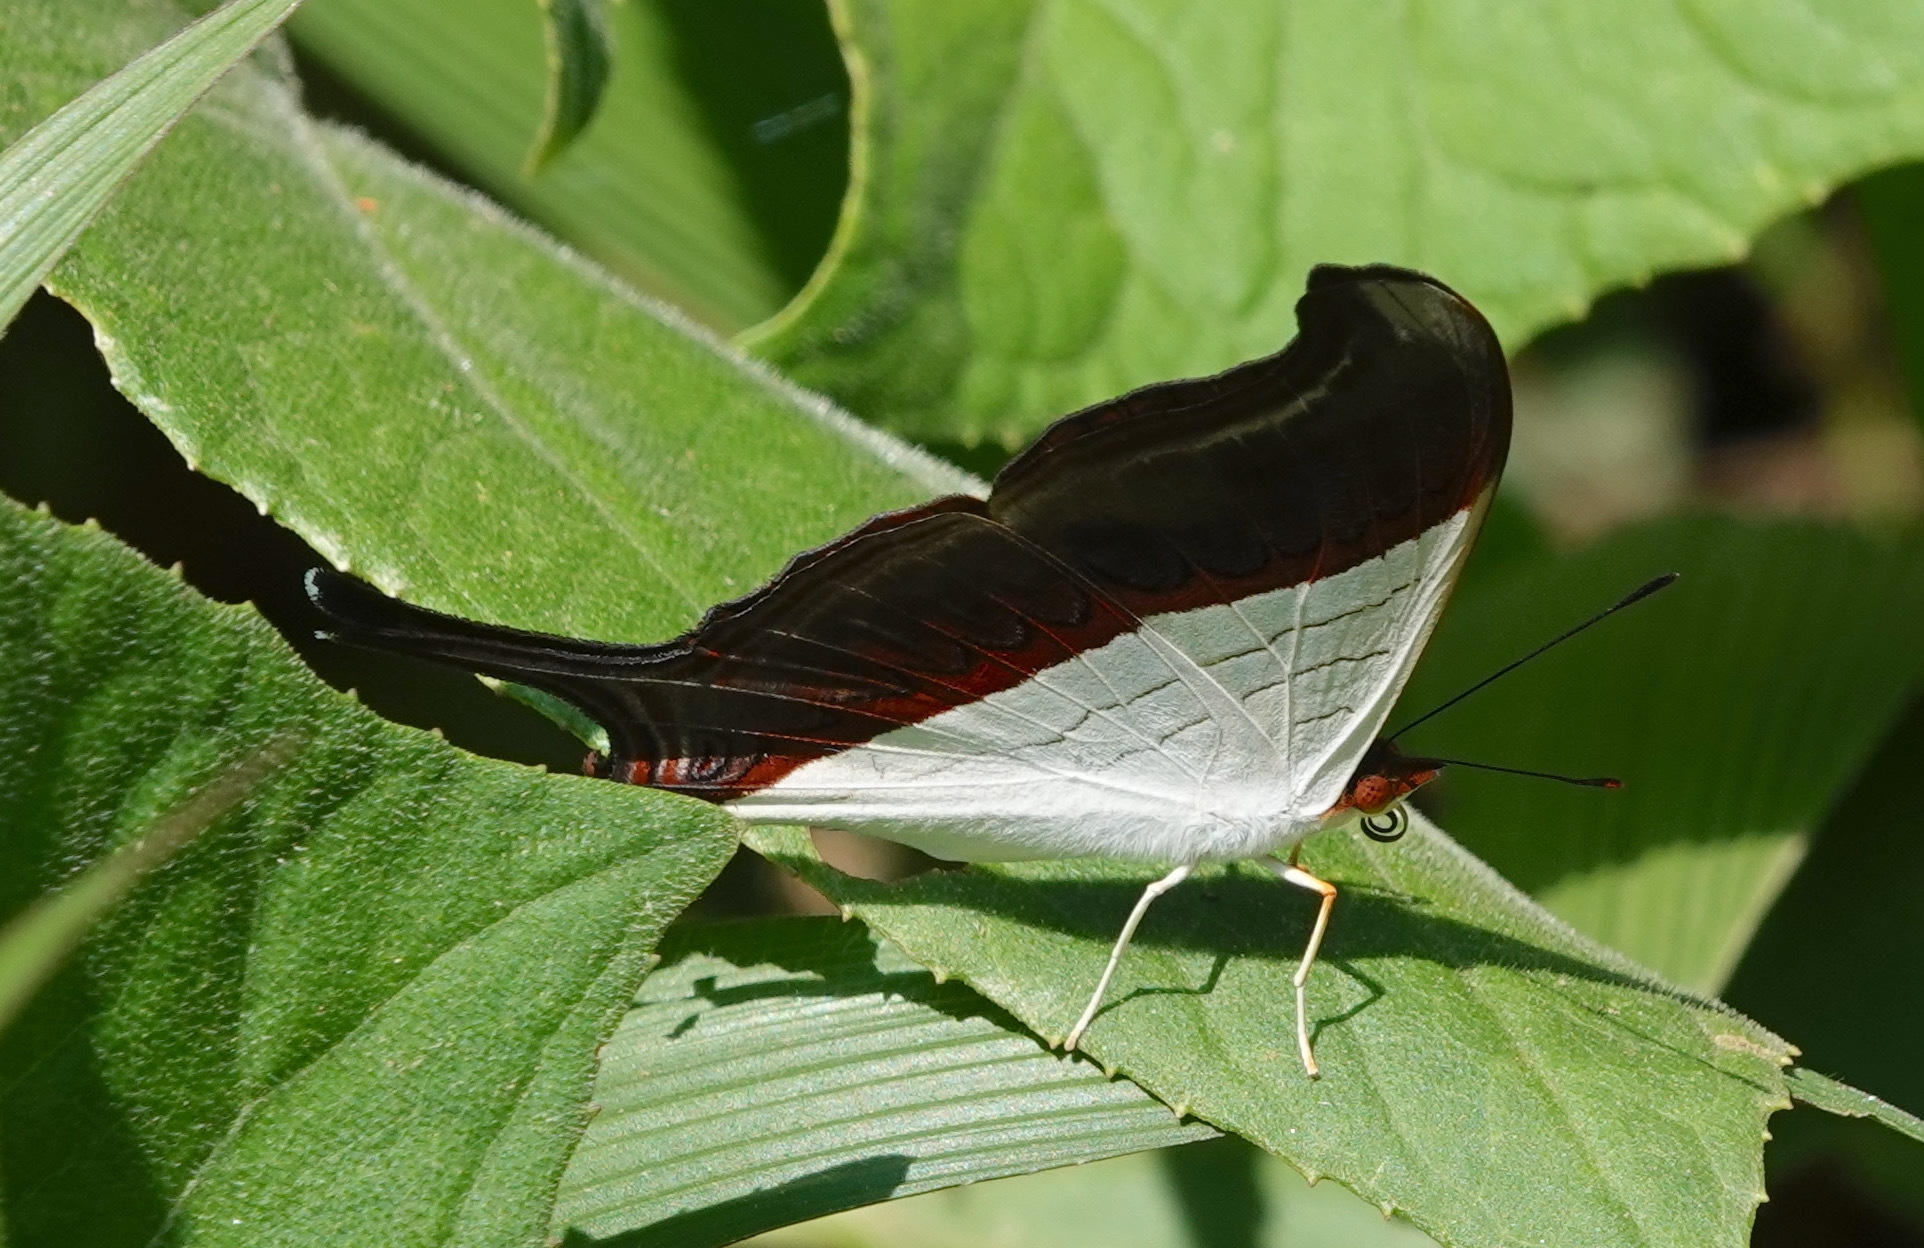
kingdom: Animalia
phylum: Arthropoda
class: Insecta
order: Lepidoptera
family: Nymphalidae
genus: Marpesia
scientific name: Marpesia zerynthia
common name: Waiter daggerwing
